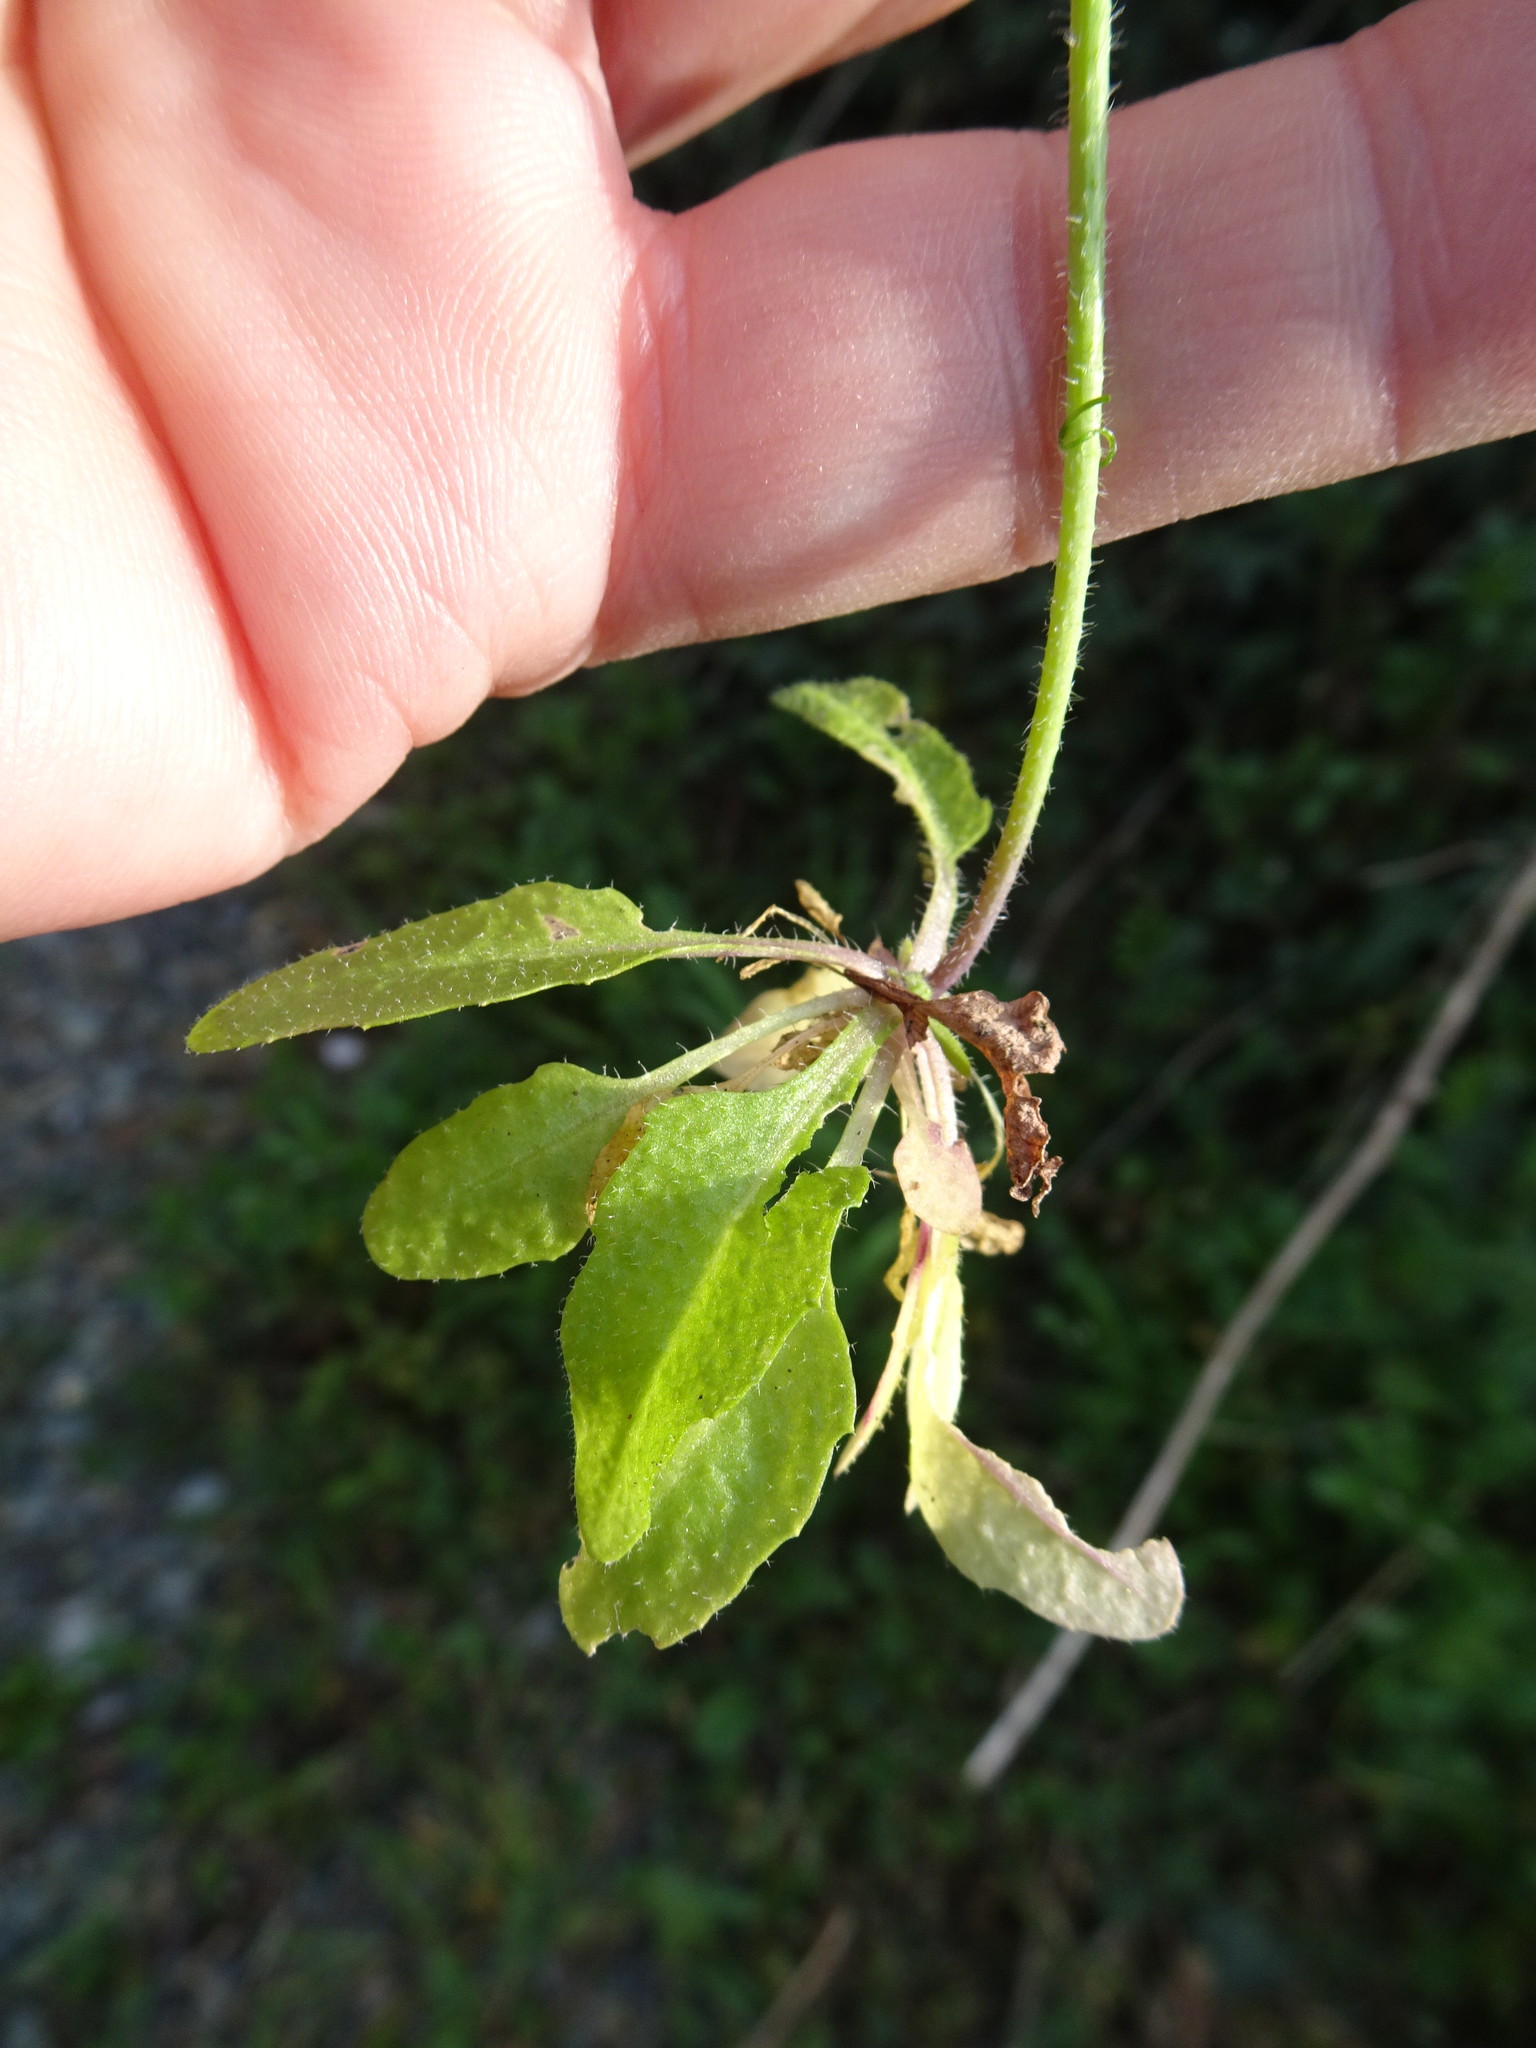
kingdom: Plantae
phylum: Tracheophyta
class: Magnoliopsida
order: Brassicales
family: Brassicaceae
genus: Arabidopsis
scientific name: Arabidopsis thaliana
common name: Thale cress
